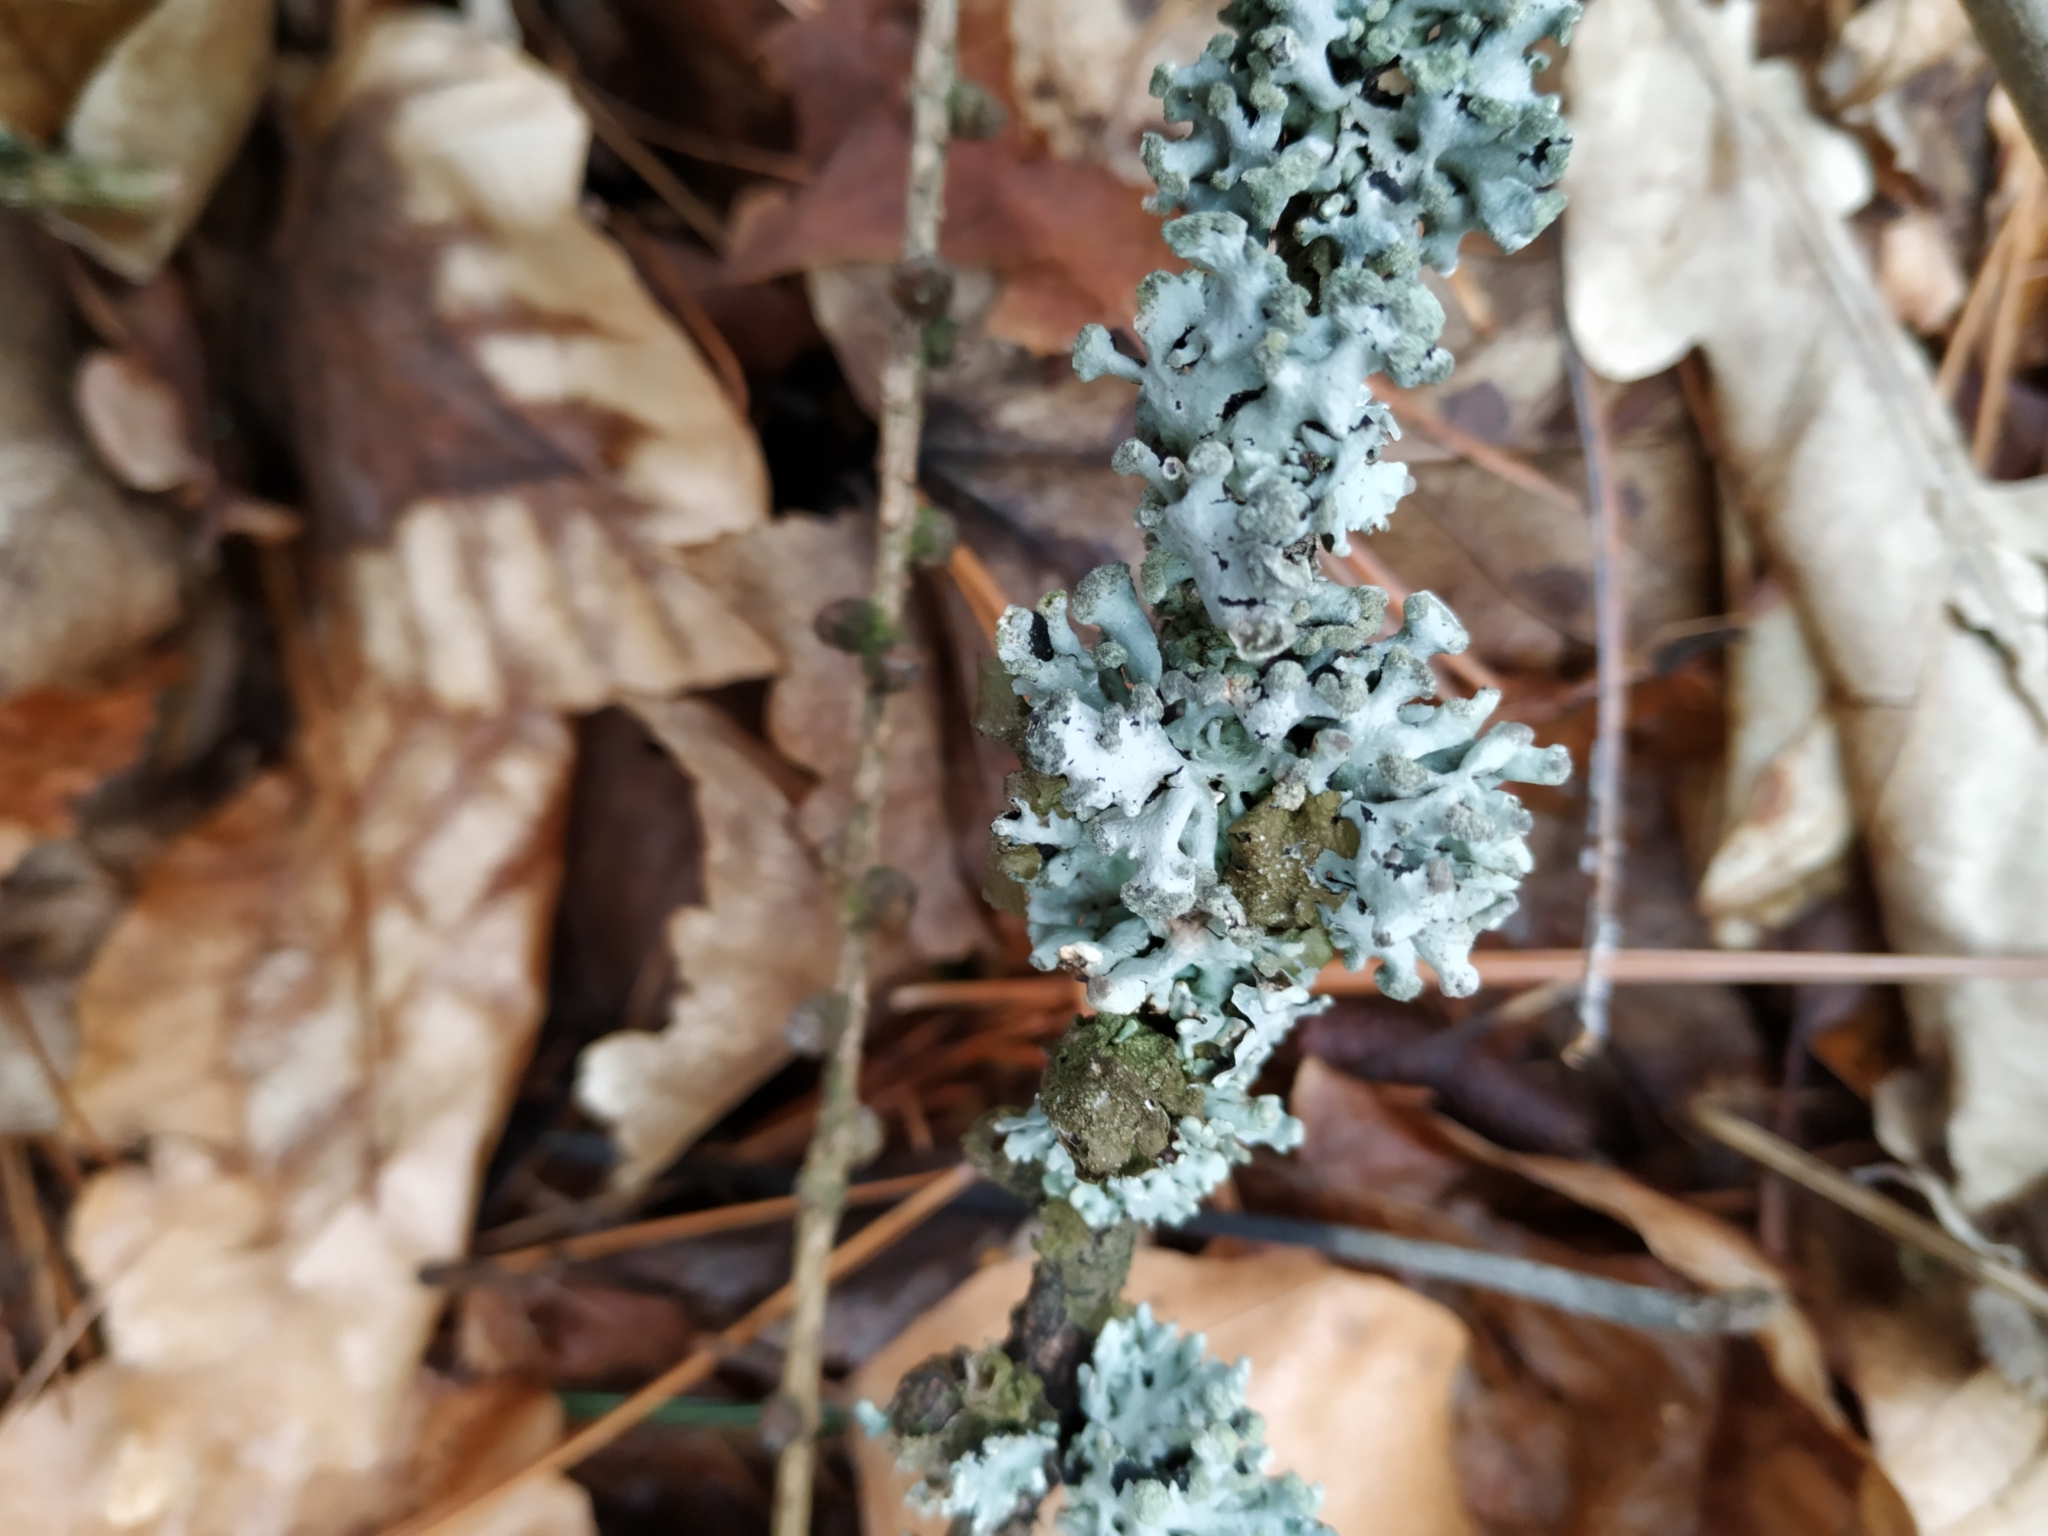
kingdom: Fungi
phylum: Ascomycota
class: Lecanoromycetes
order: Lecanorales
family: Parmeliaceae
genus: Hypogymnia
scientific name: Hypogymnia tubulosa
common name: Powder-headed tube lichen
